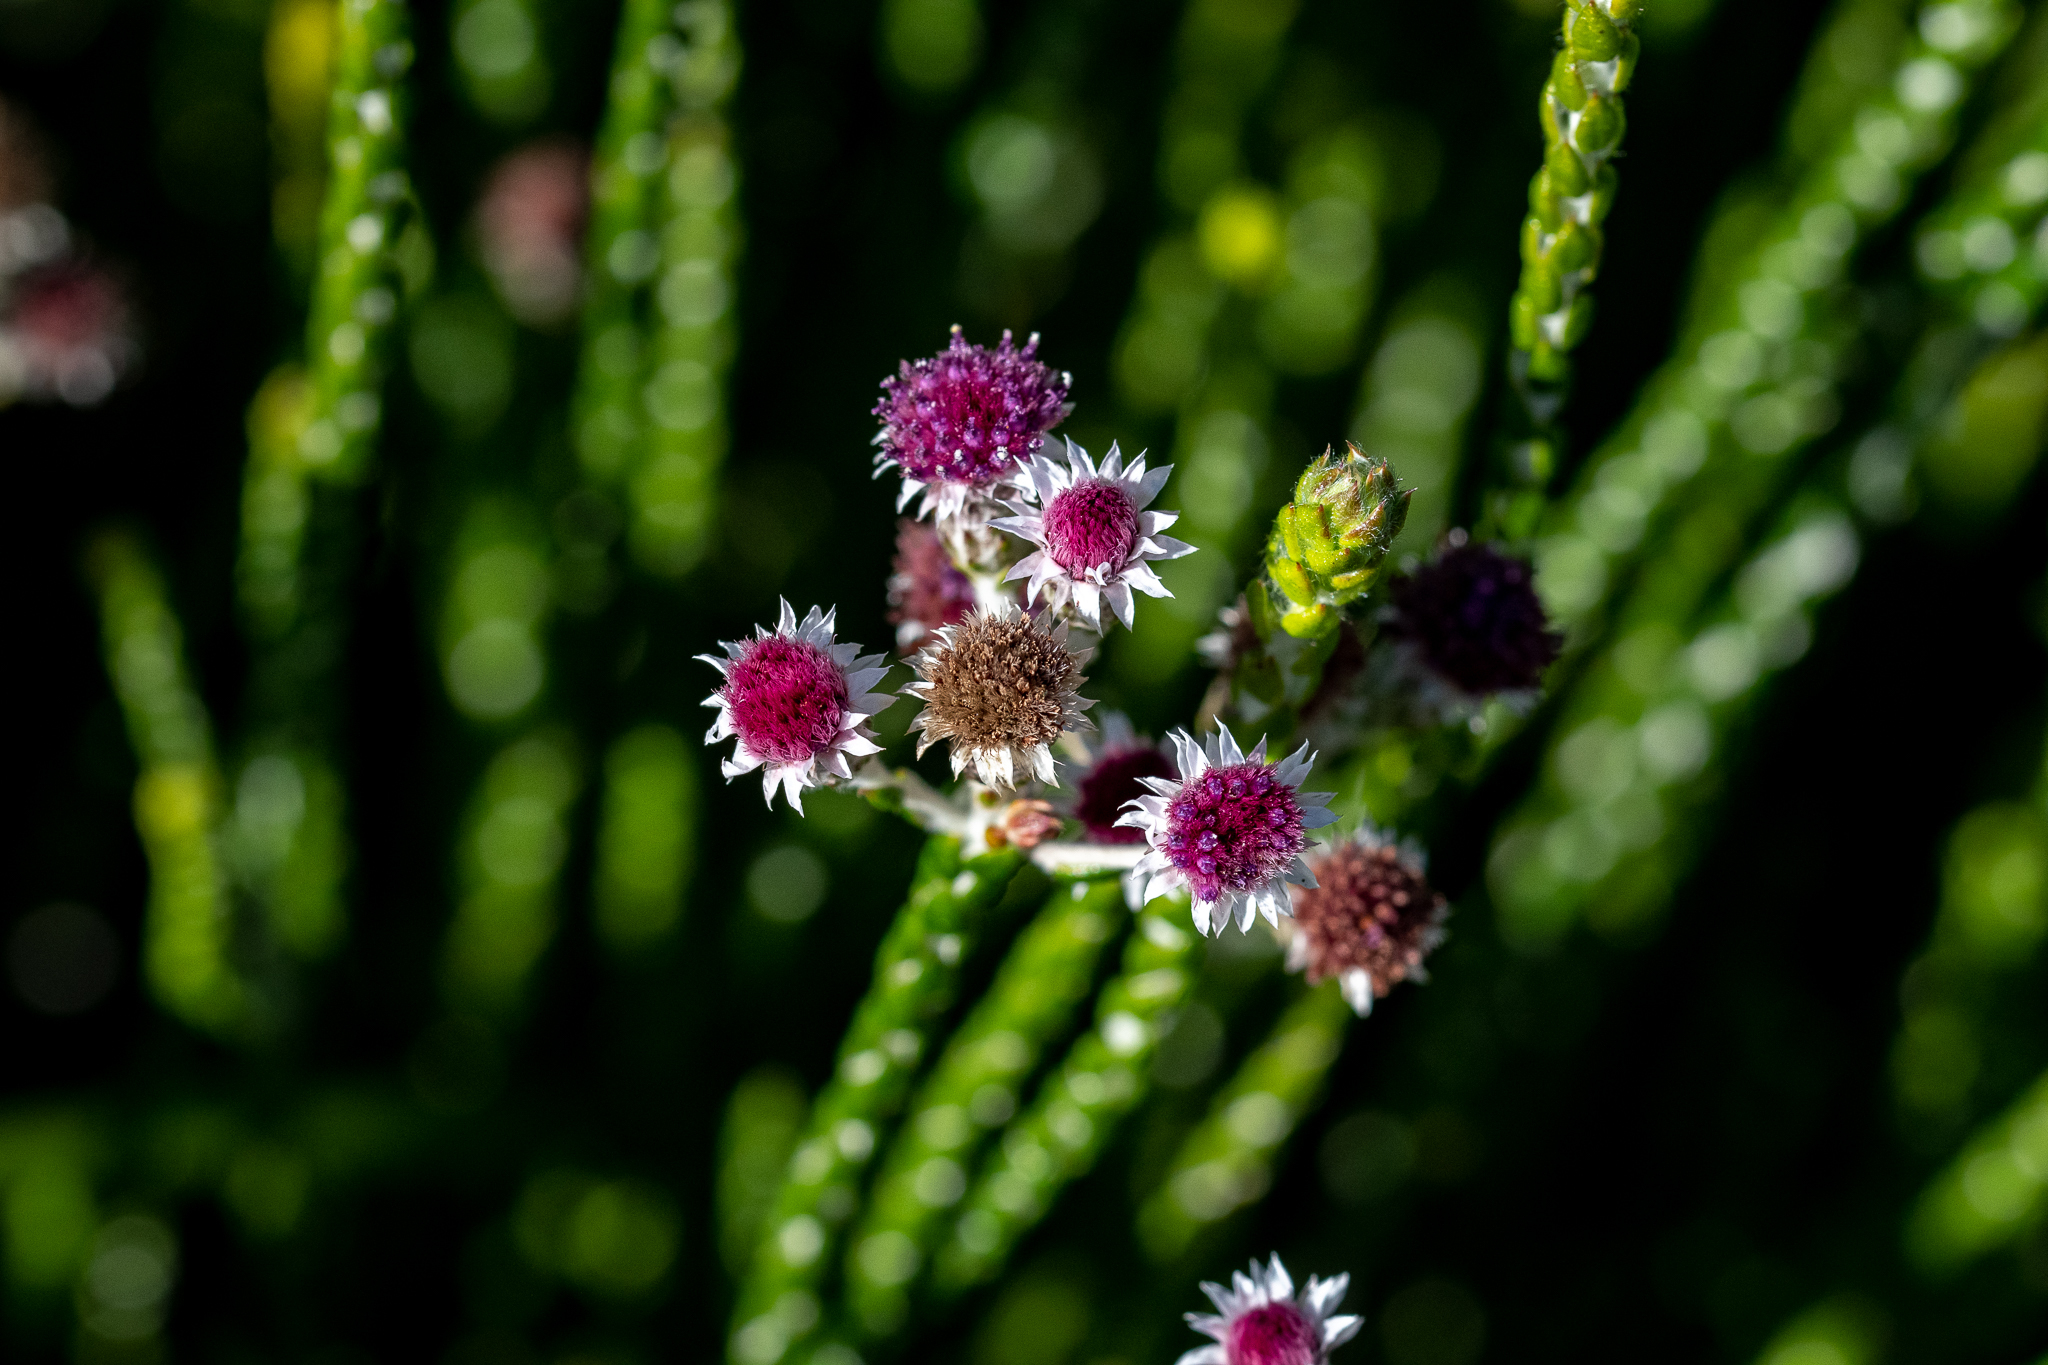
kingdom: Plantae
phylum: Tracheophyta
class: Magnoliopsida
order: Asterales
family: Asteraceae
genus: Lachnospermum
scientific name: Lachnospermum imbricatum
